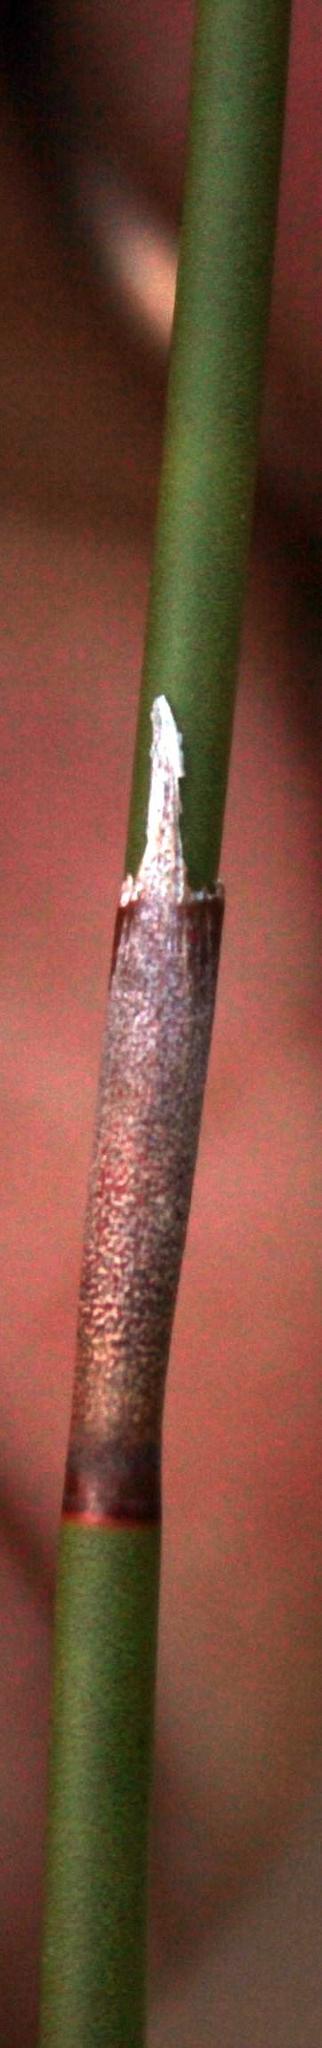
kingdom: Plantae
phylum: Tracheophyta
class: Liliopsida
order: Poales
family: Restionaceae
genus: Restio
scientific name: Restio strobilifer
